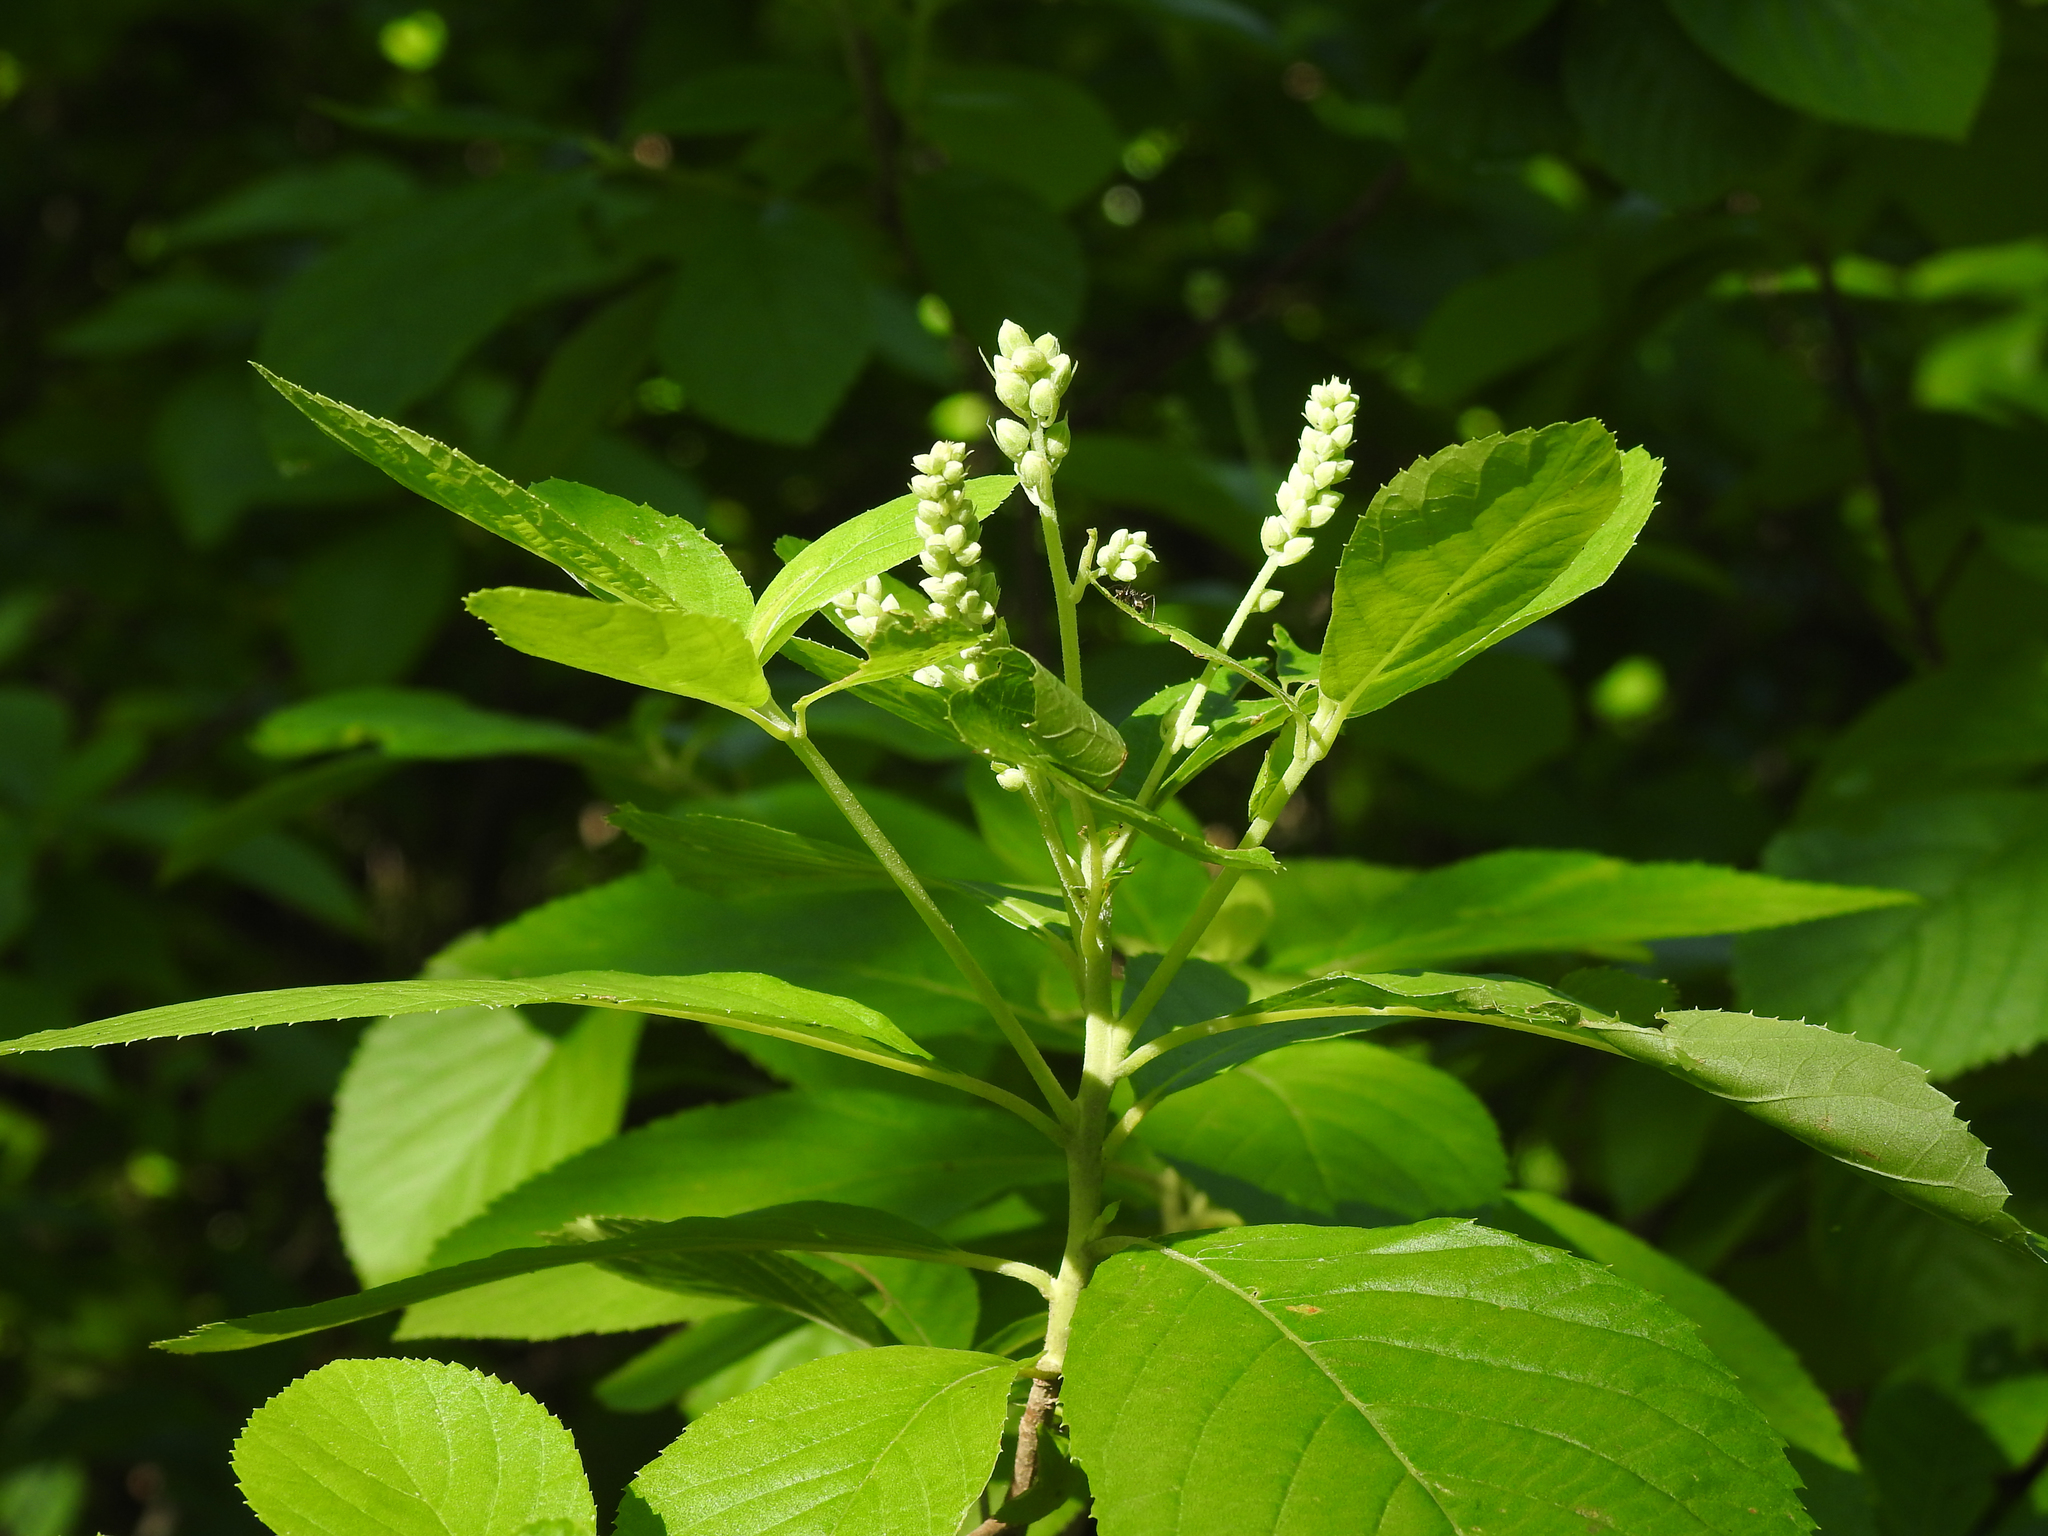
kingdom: Plantae
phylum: Tracheophyta
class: Magnoliopsida
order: Ericales
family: Clethraceae
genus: Clethra
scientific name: Clethra alnifolia
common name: Sweet pepperbush
